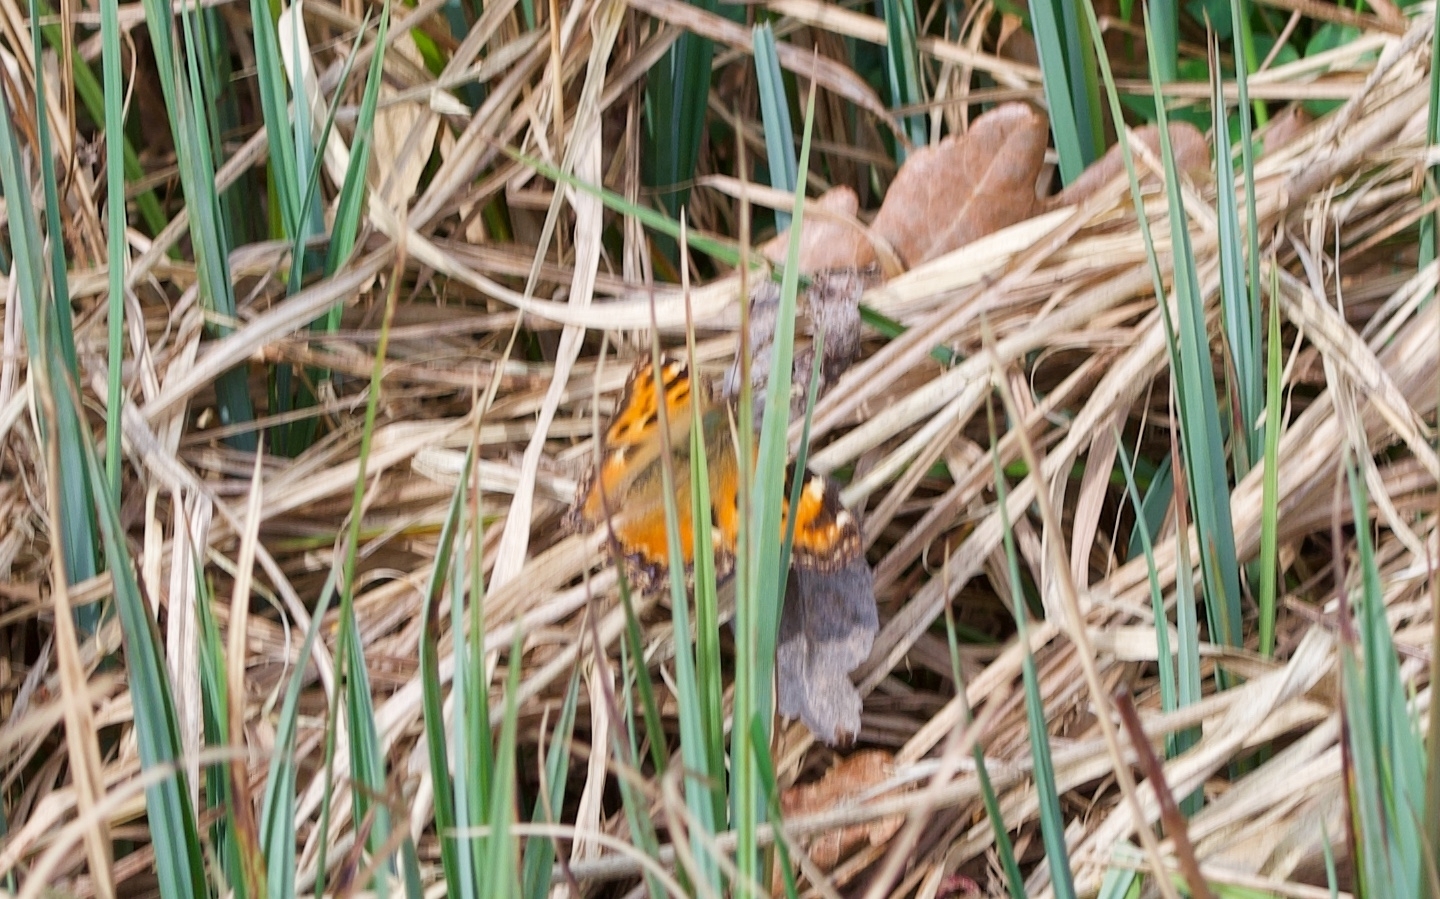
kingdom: Animalia
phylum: Arthropoda
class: Insecta
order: Lepidoptera
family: Nymphalidae
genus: Nymphalis
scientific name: Nymphalis polychloros
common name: Large tortoiseshell
